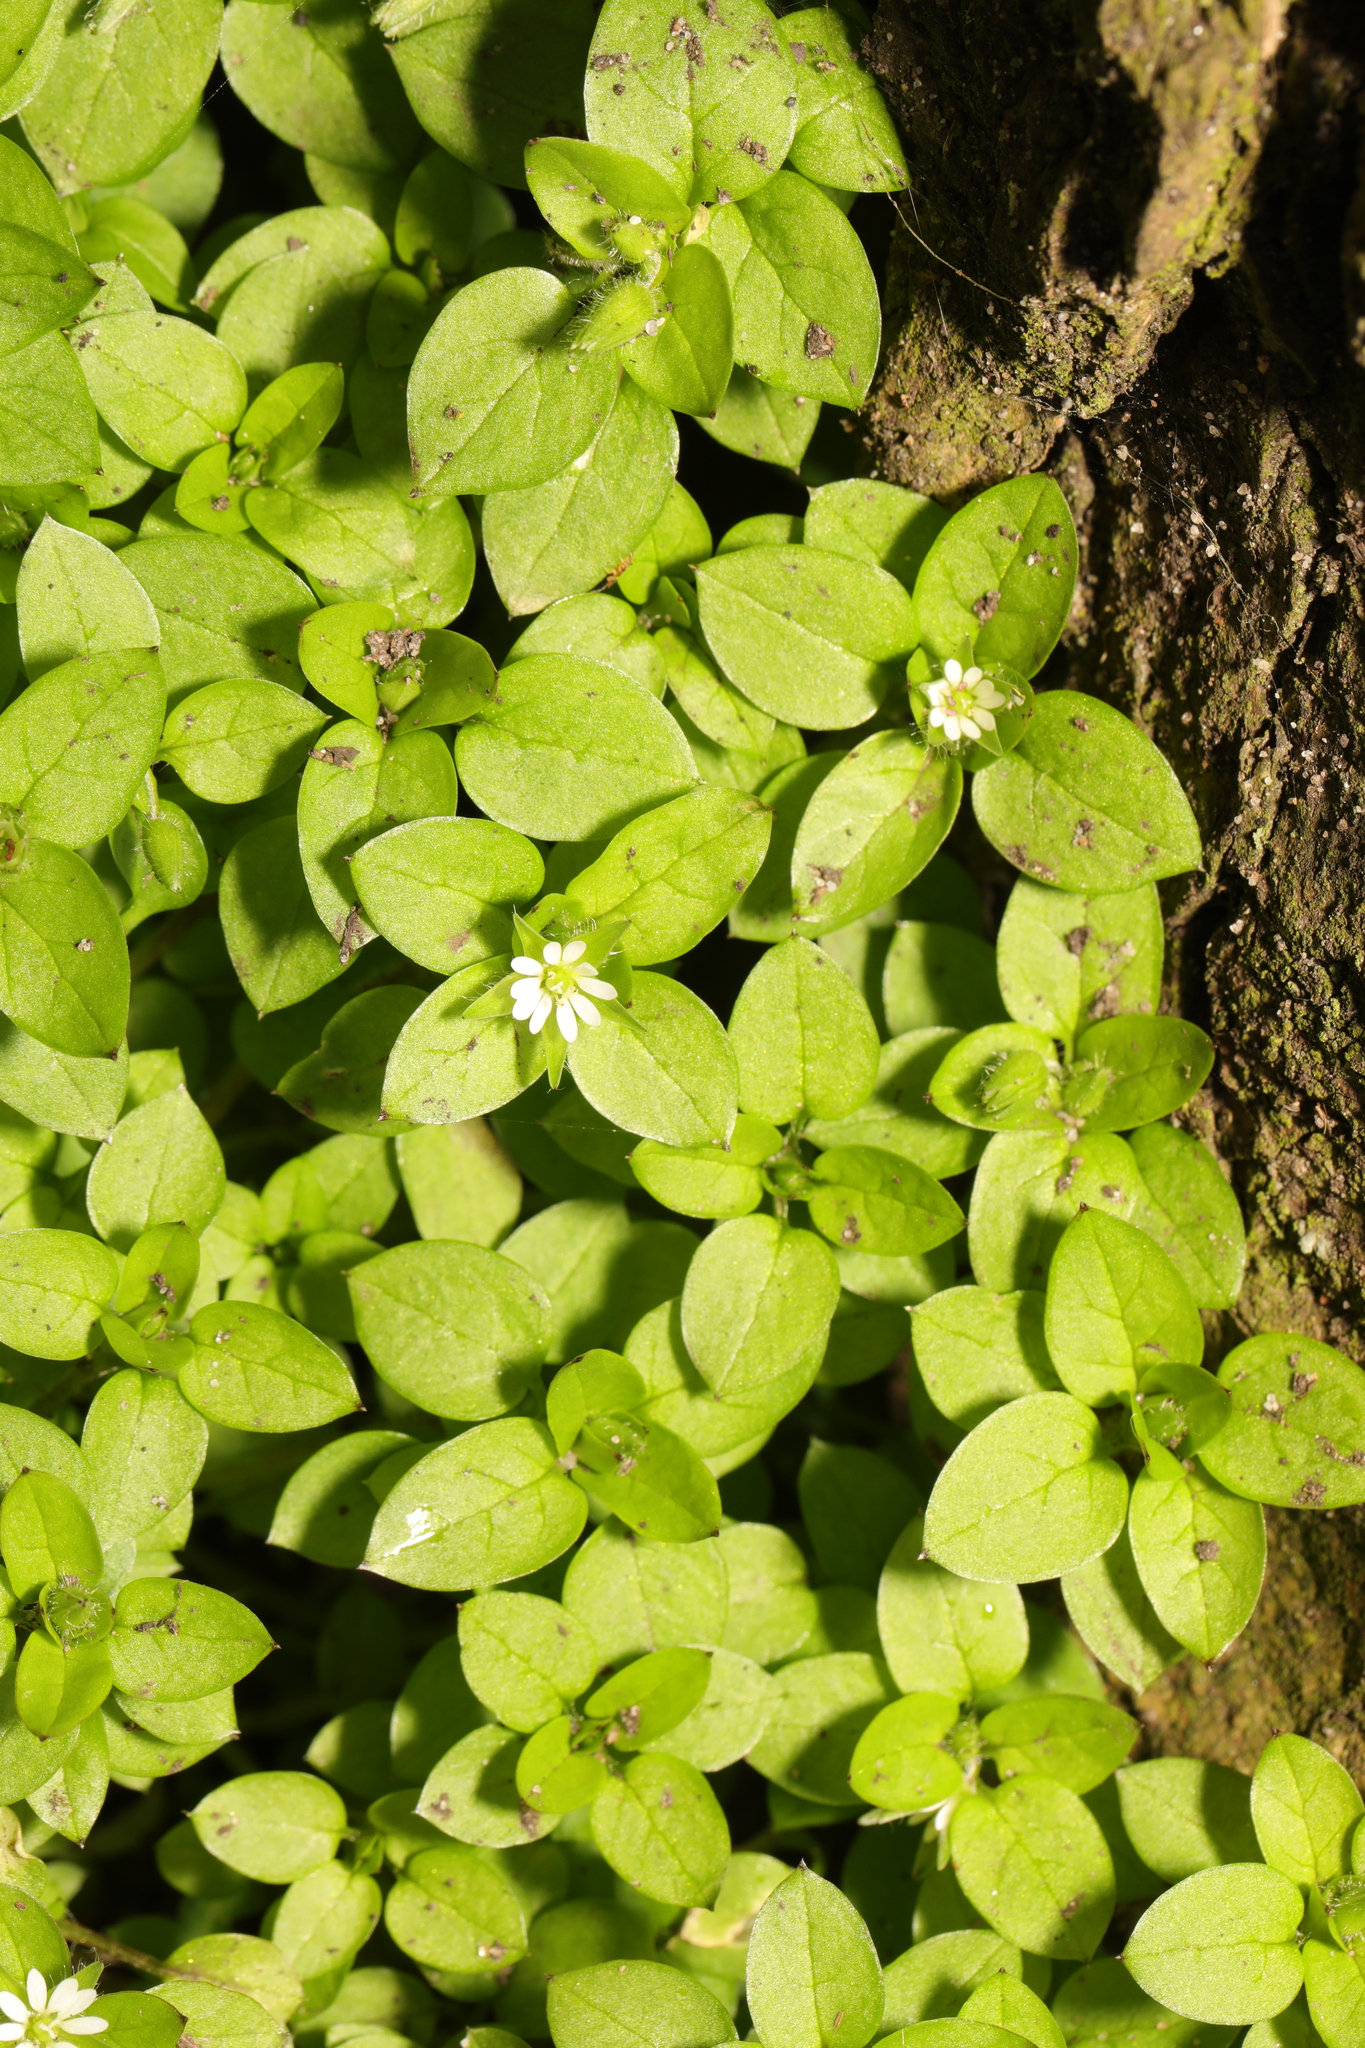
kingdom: Plantae
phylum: Tracheophyta
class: Magnoliopsida
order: Caryophyllales
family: Caryophyllaceae
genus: Stellaria
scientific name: Stellaria media
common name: Common chickweed
